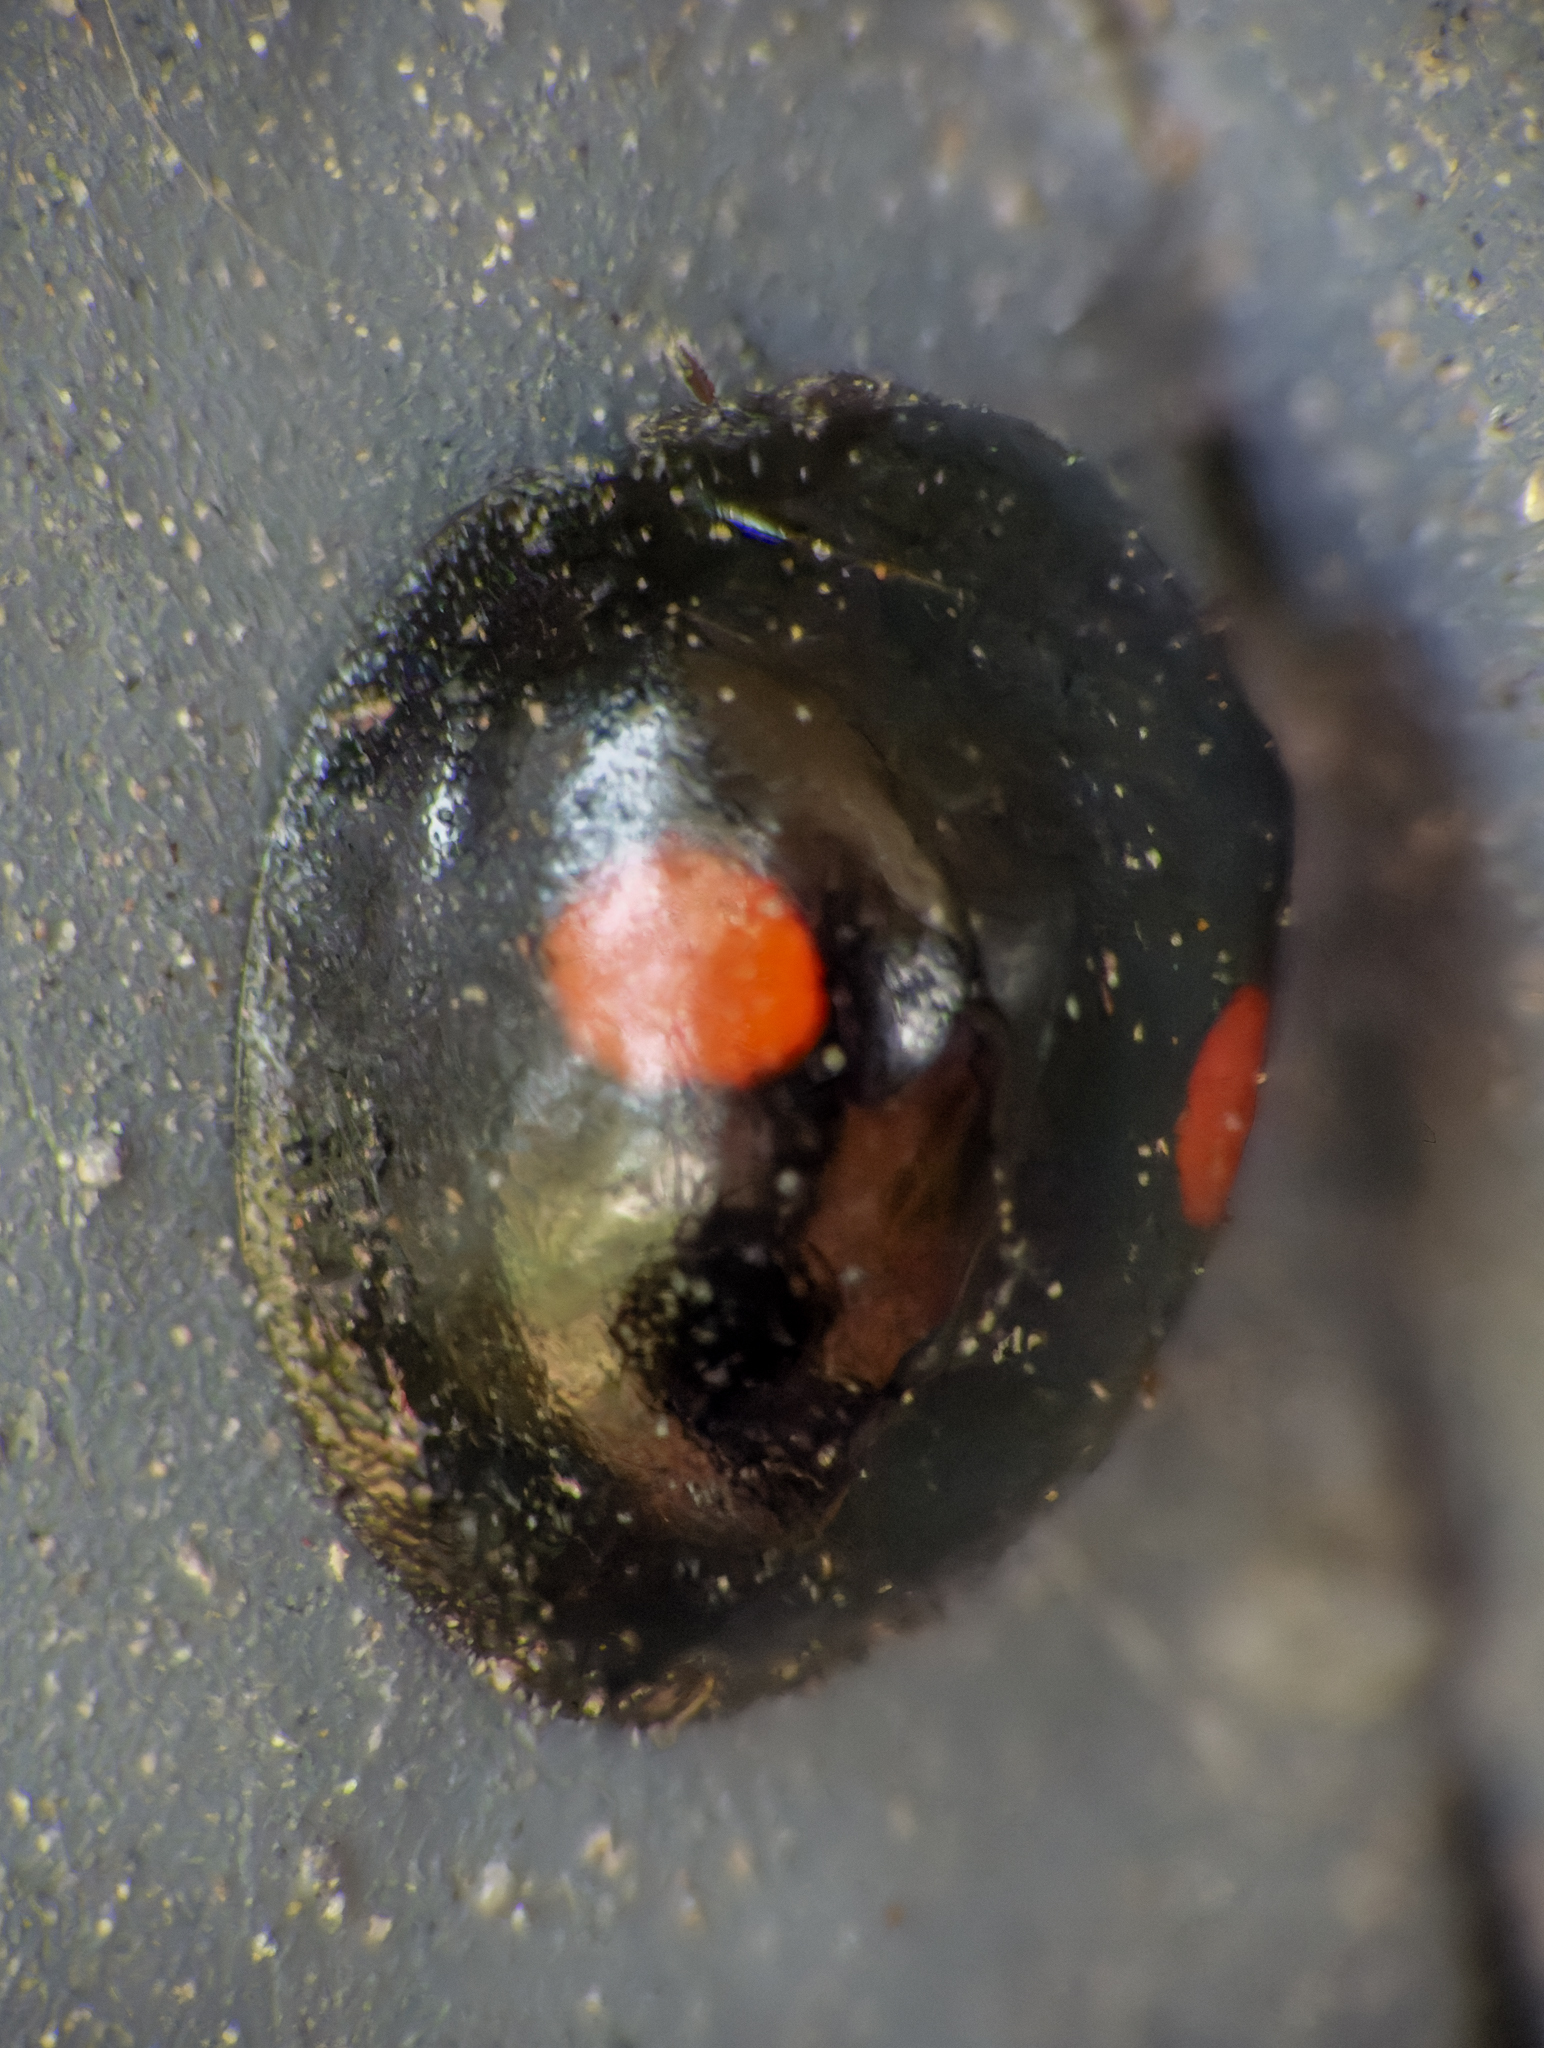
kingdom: Animalia
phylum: Arthropoda
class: Insecta
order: Coleoptera
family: Coccinellidae
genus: Chilocorus
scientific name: Chilocorus stigma
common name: Twicestabbed lady beetle
